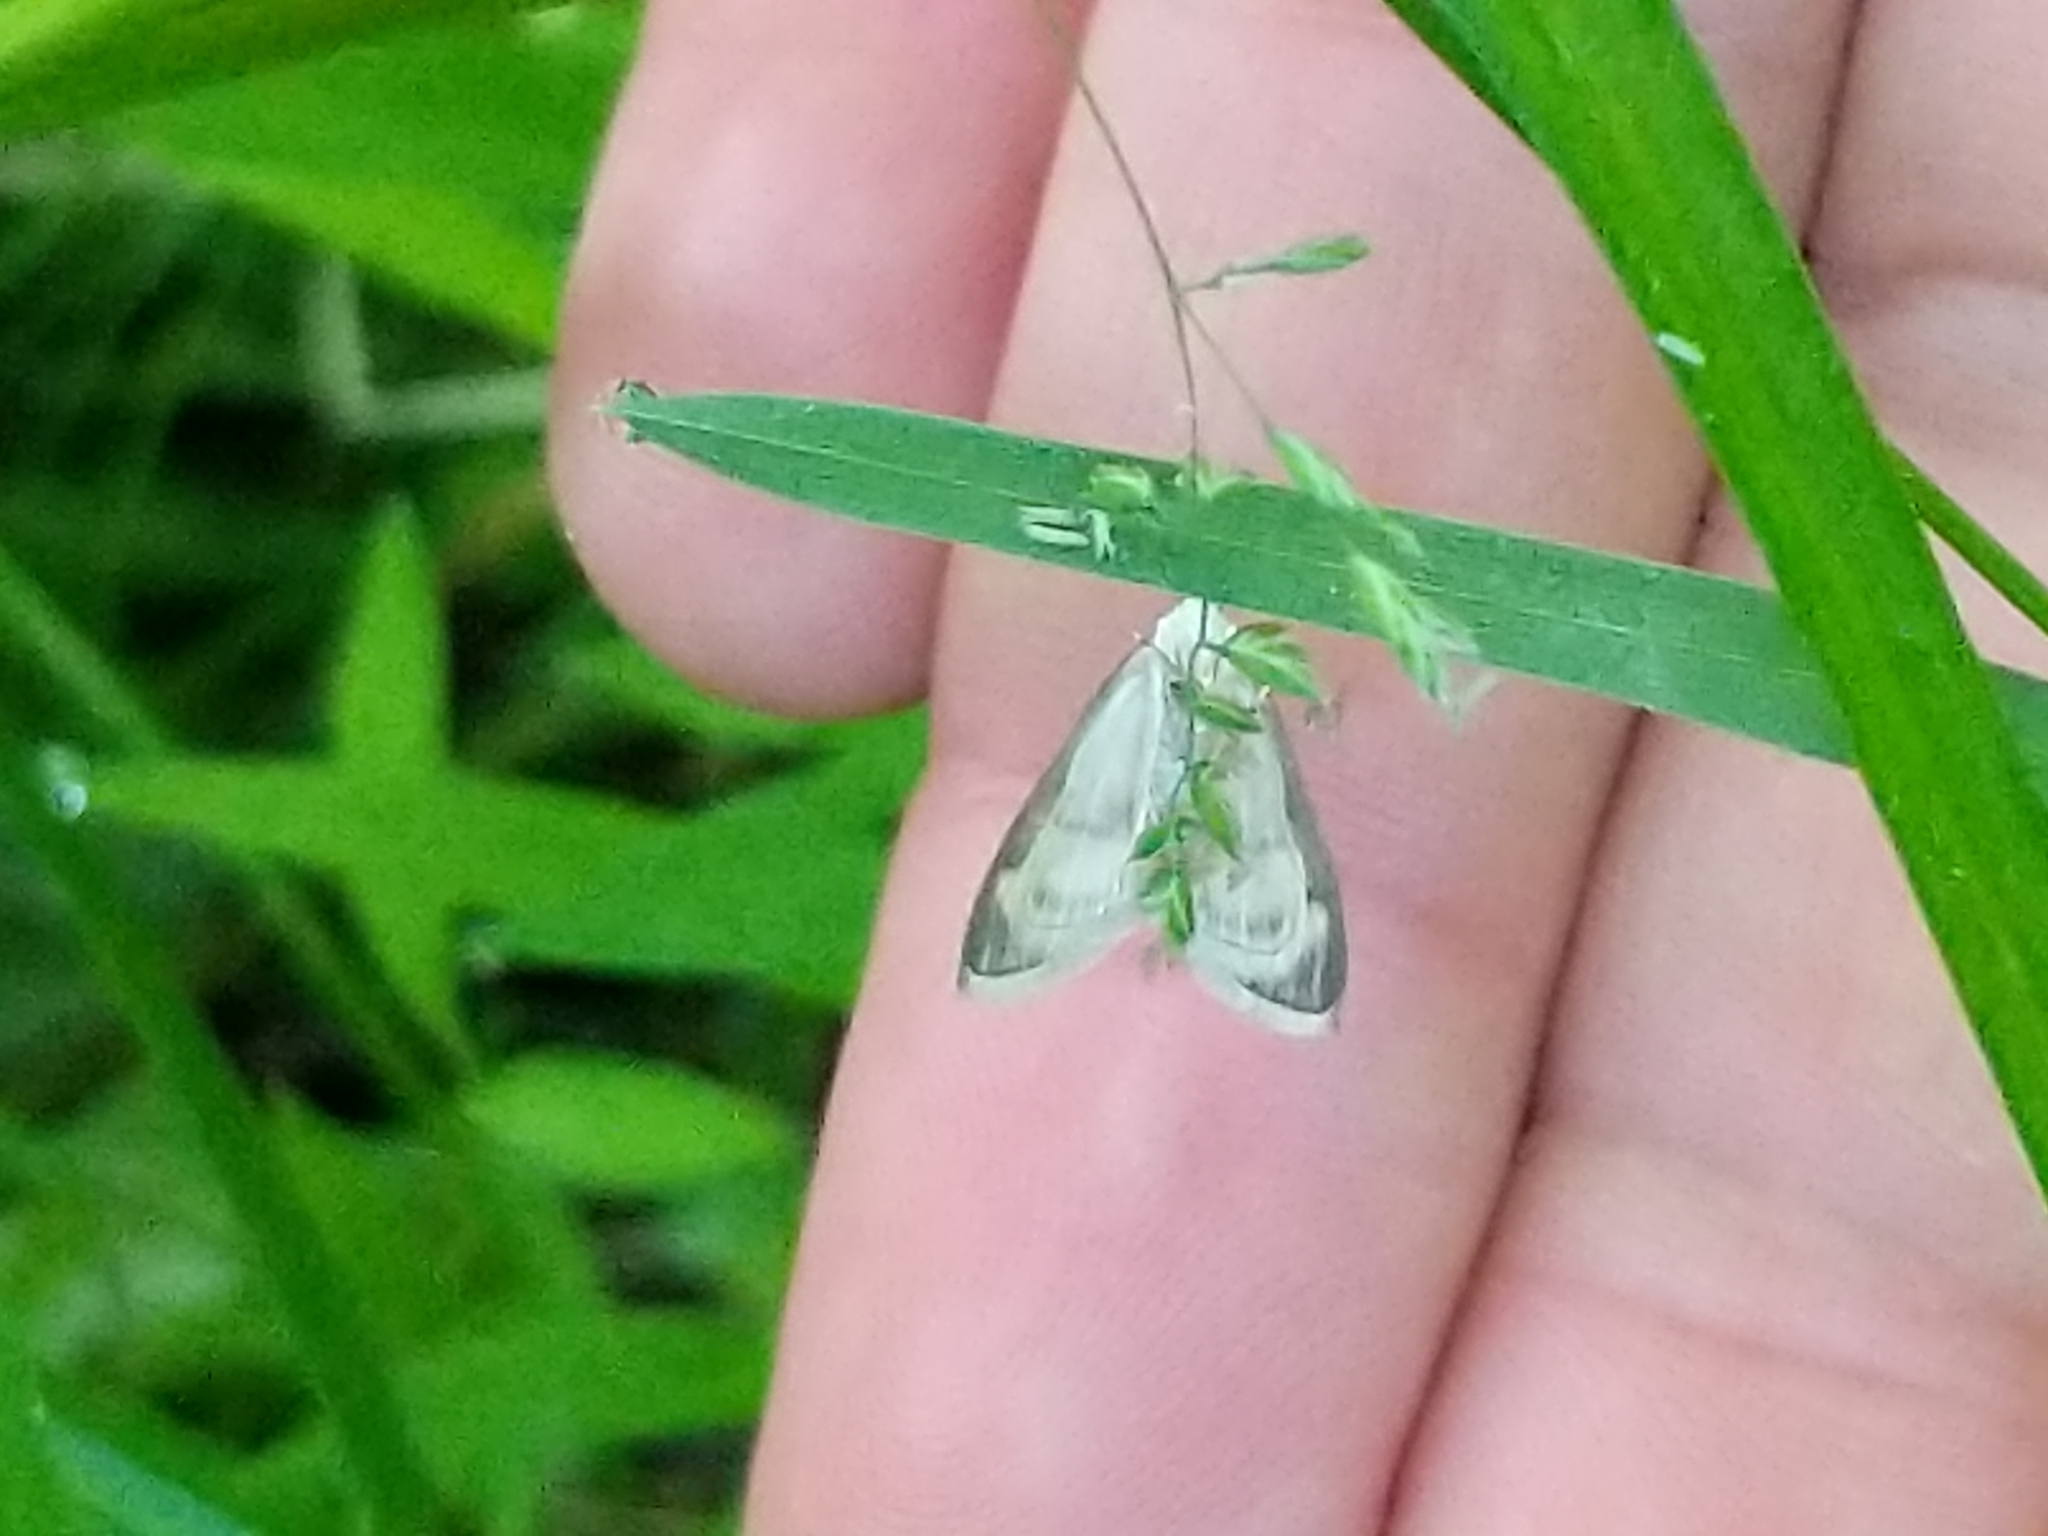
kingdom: Animalia
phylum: Arthropoda
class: Insecta
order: Lepidoptera
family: Crambidae
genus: Crocidophora
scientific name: Crocidophora tuberculalis
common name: Pale-winged crocidiphora moth
